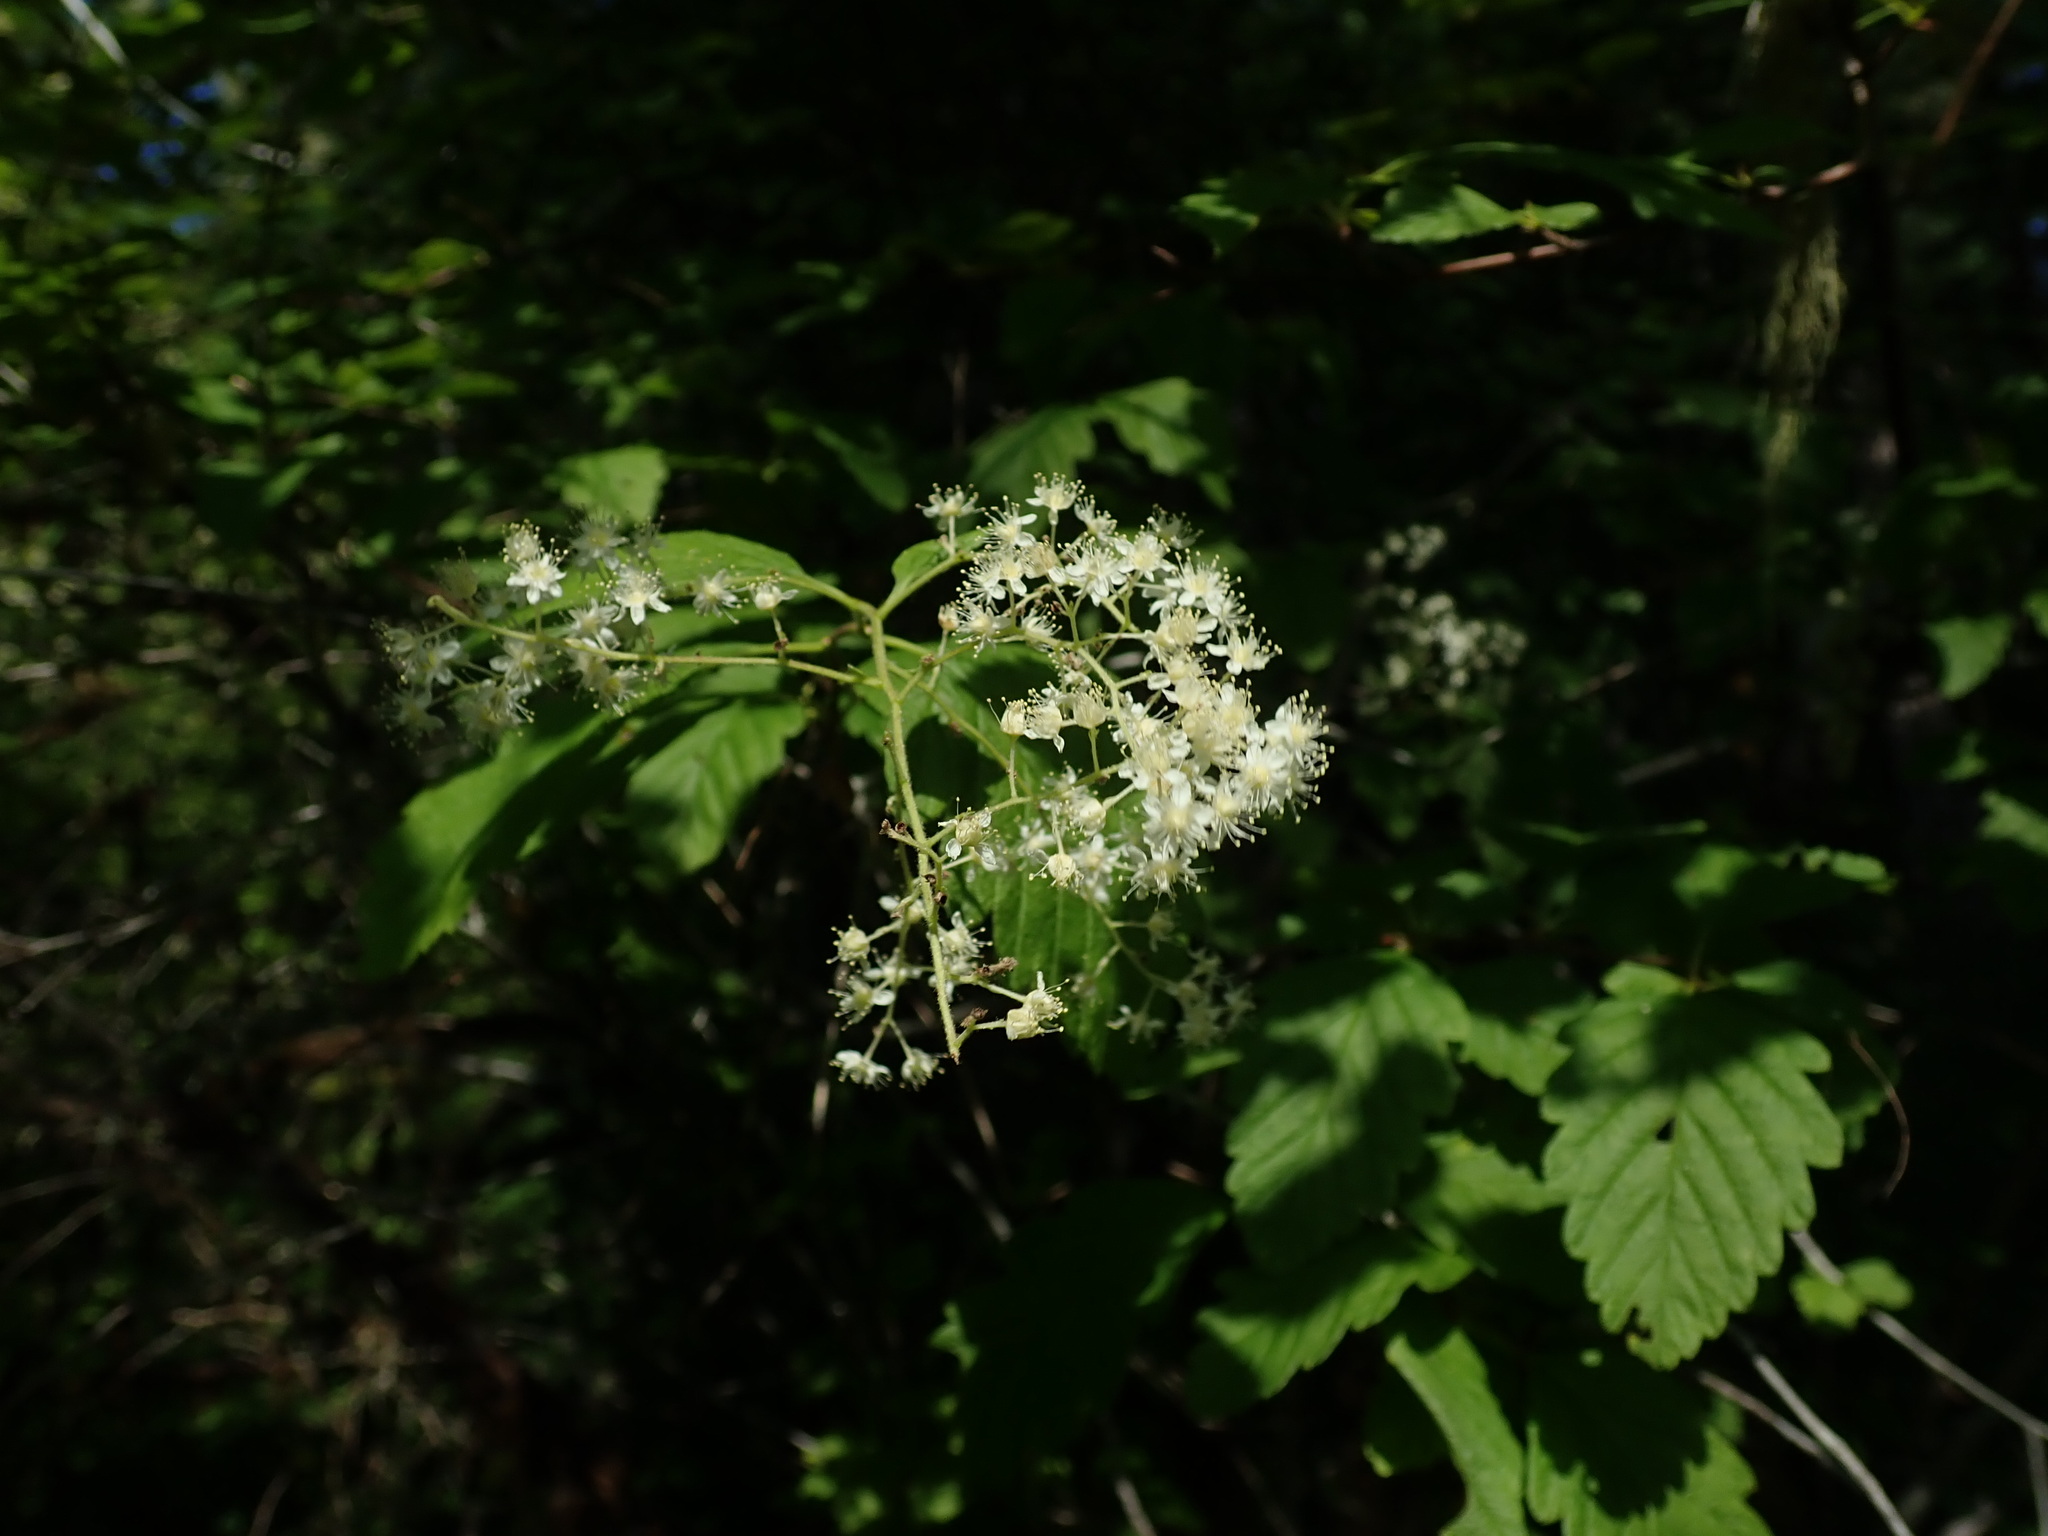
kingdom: Plantae
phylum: Tracheophyta
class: Magnoliopsida
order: Rosales
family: Rosaceae
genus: Holodiscus
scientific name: Holodiscus discolor
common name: Oceanspray
